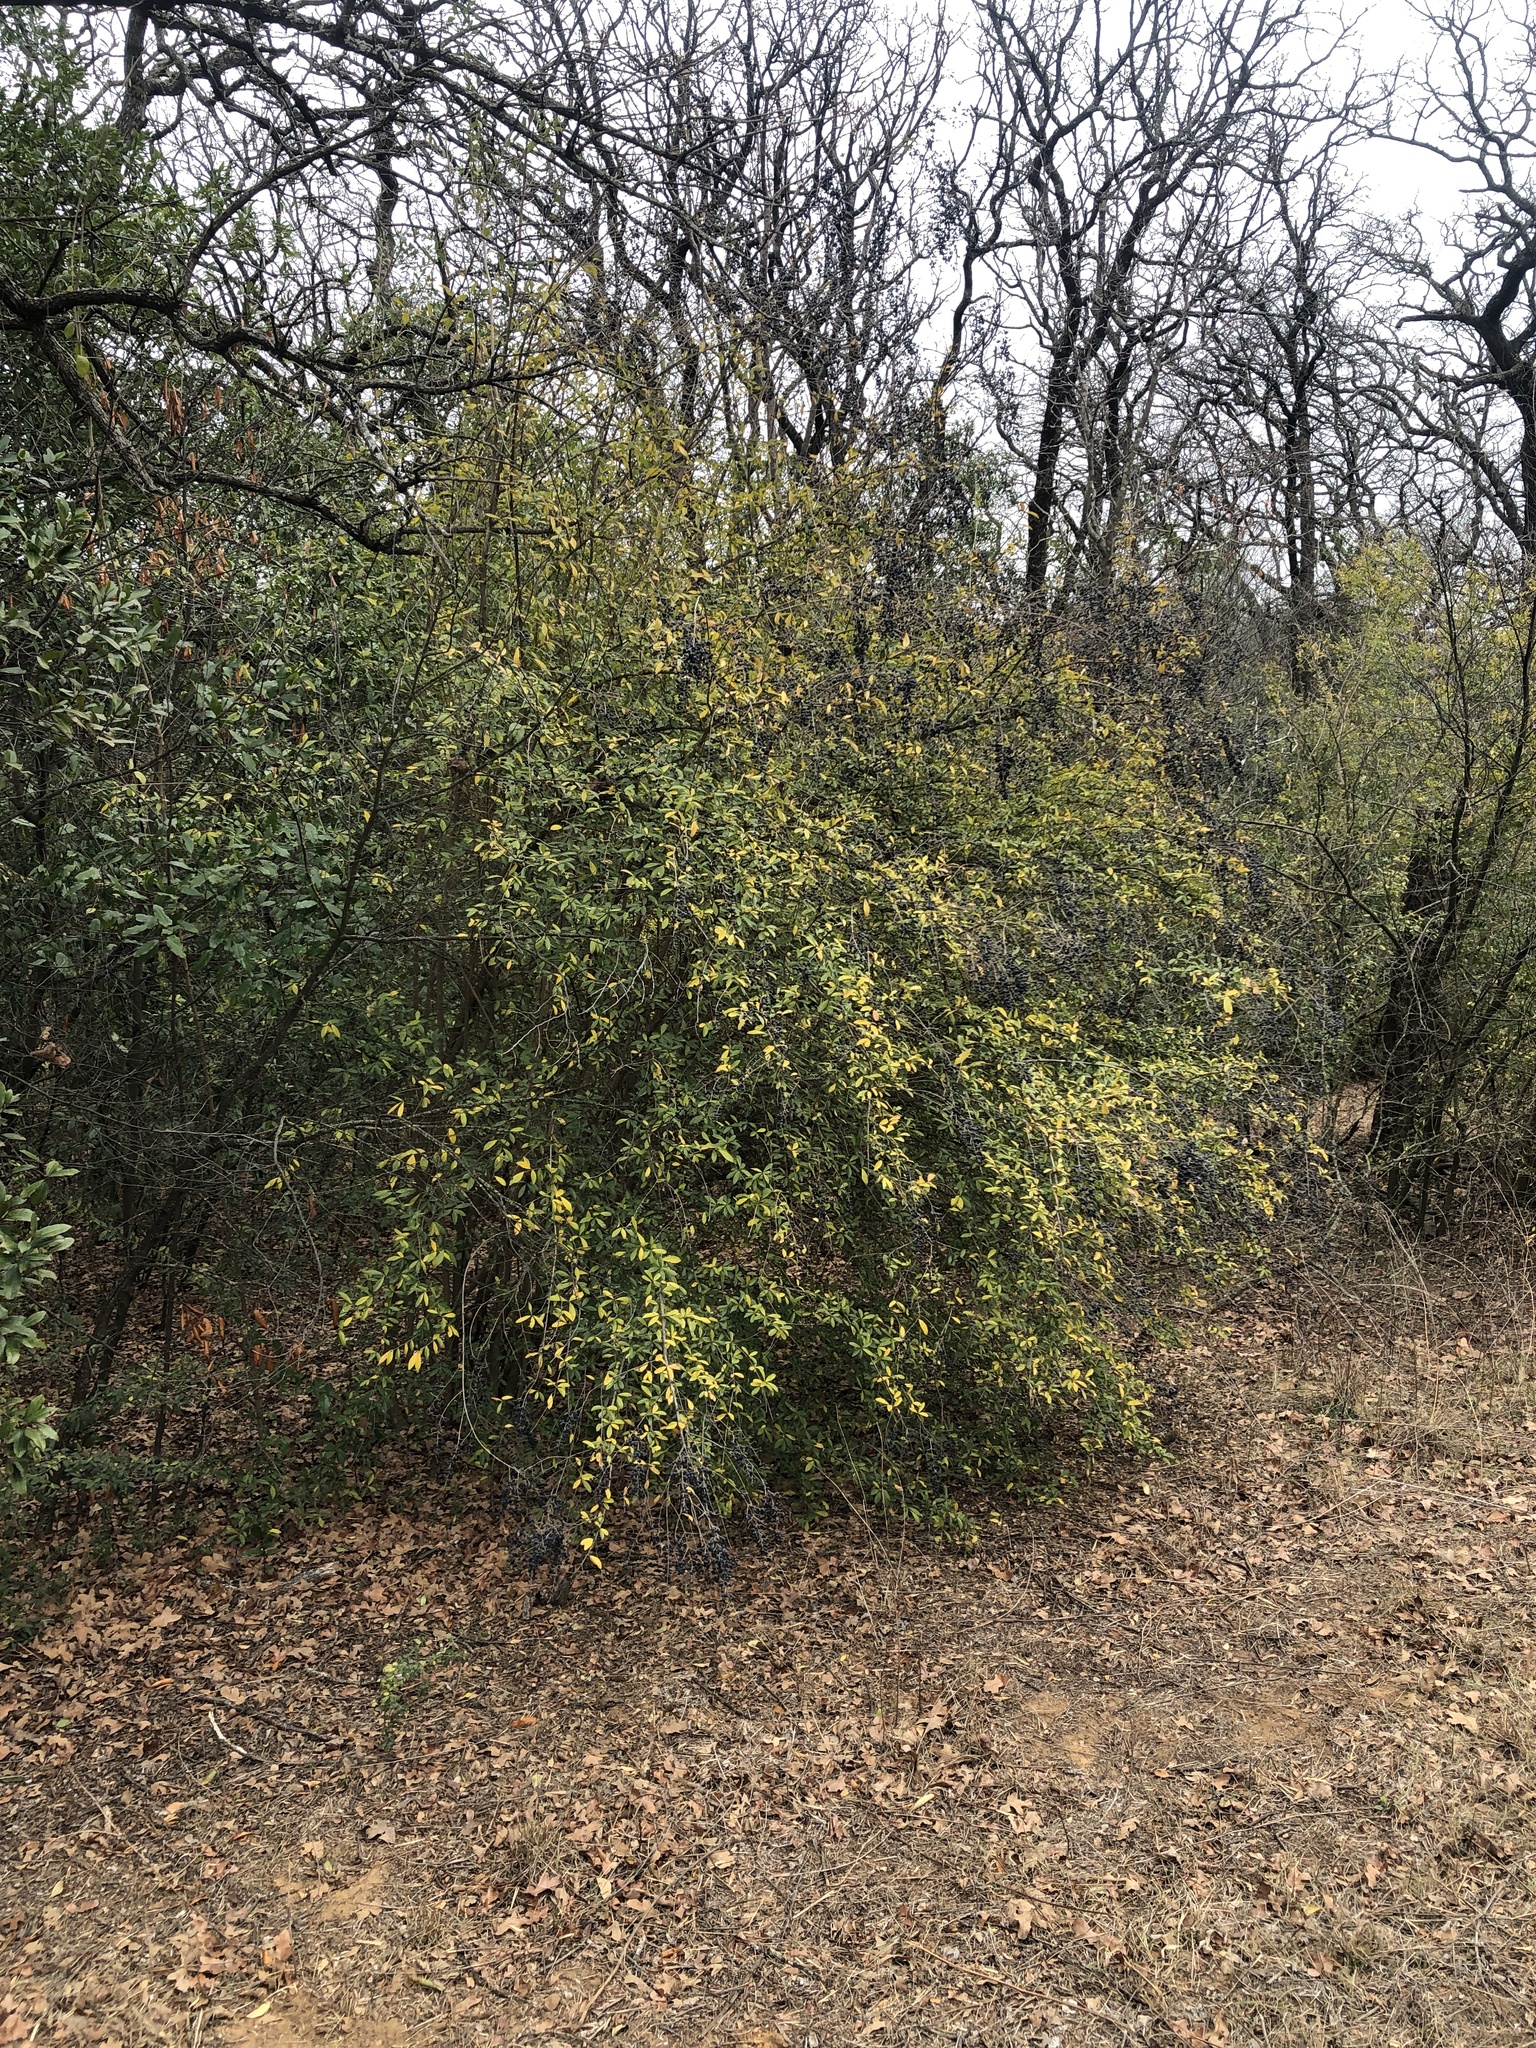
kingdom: Plantae
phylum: Tracheophyta
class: Magnoliopsida
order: Lamiales
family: Oleaceae
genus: Ligustrum
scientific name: Ligustrum quihoui
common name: Waxyleaf privet
